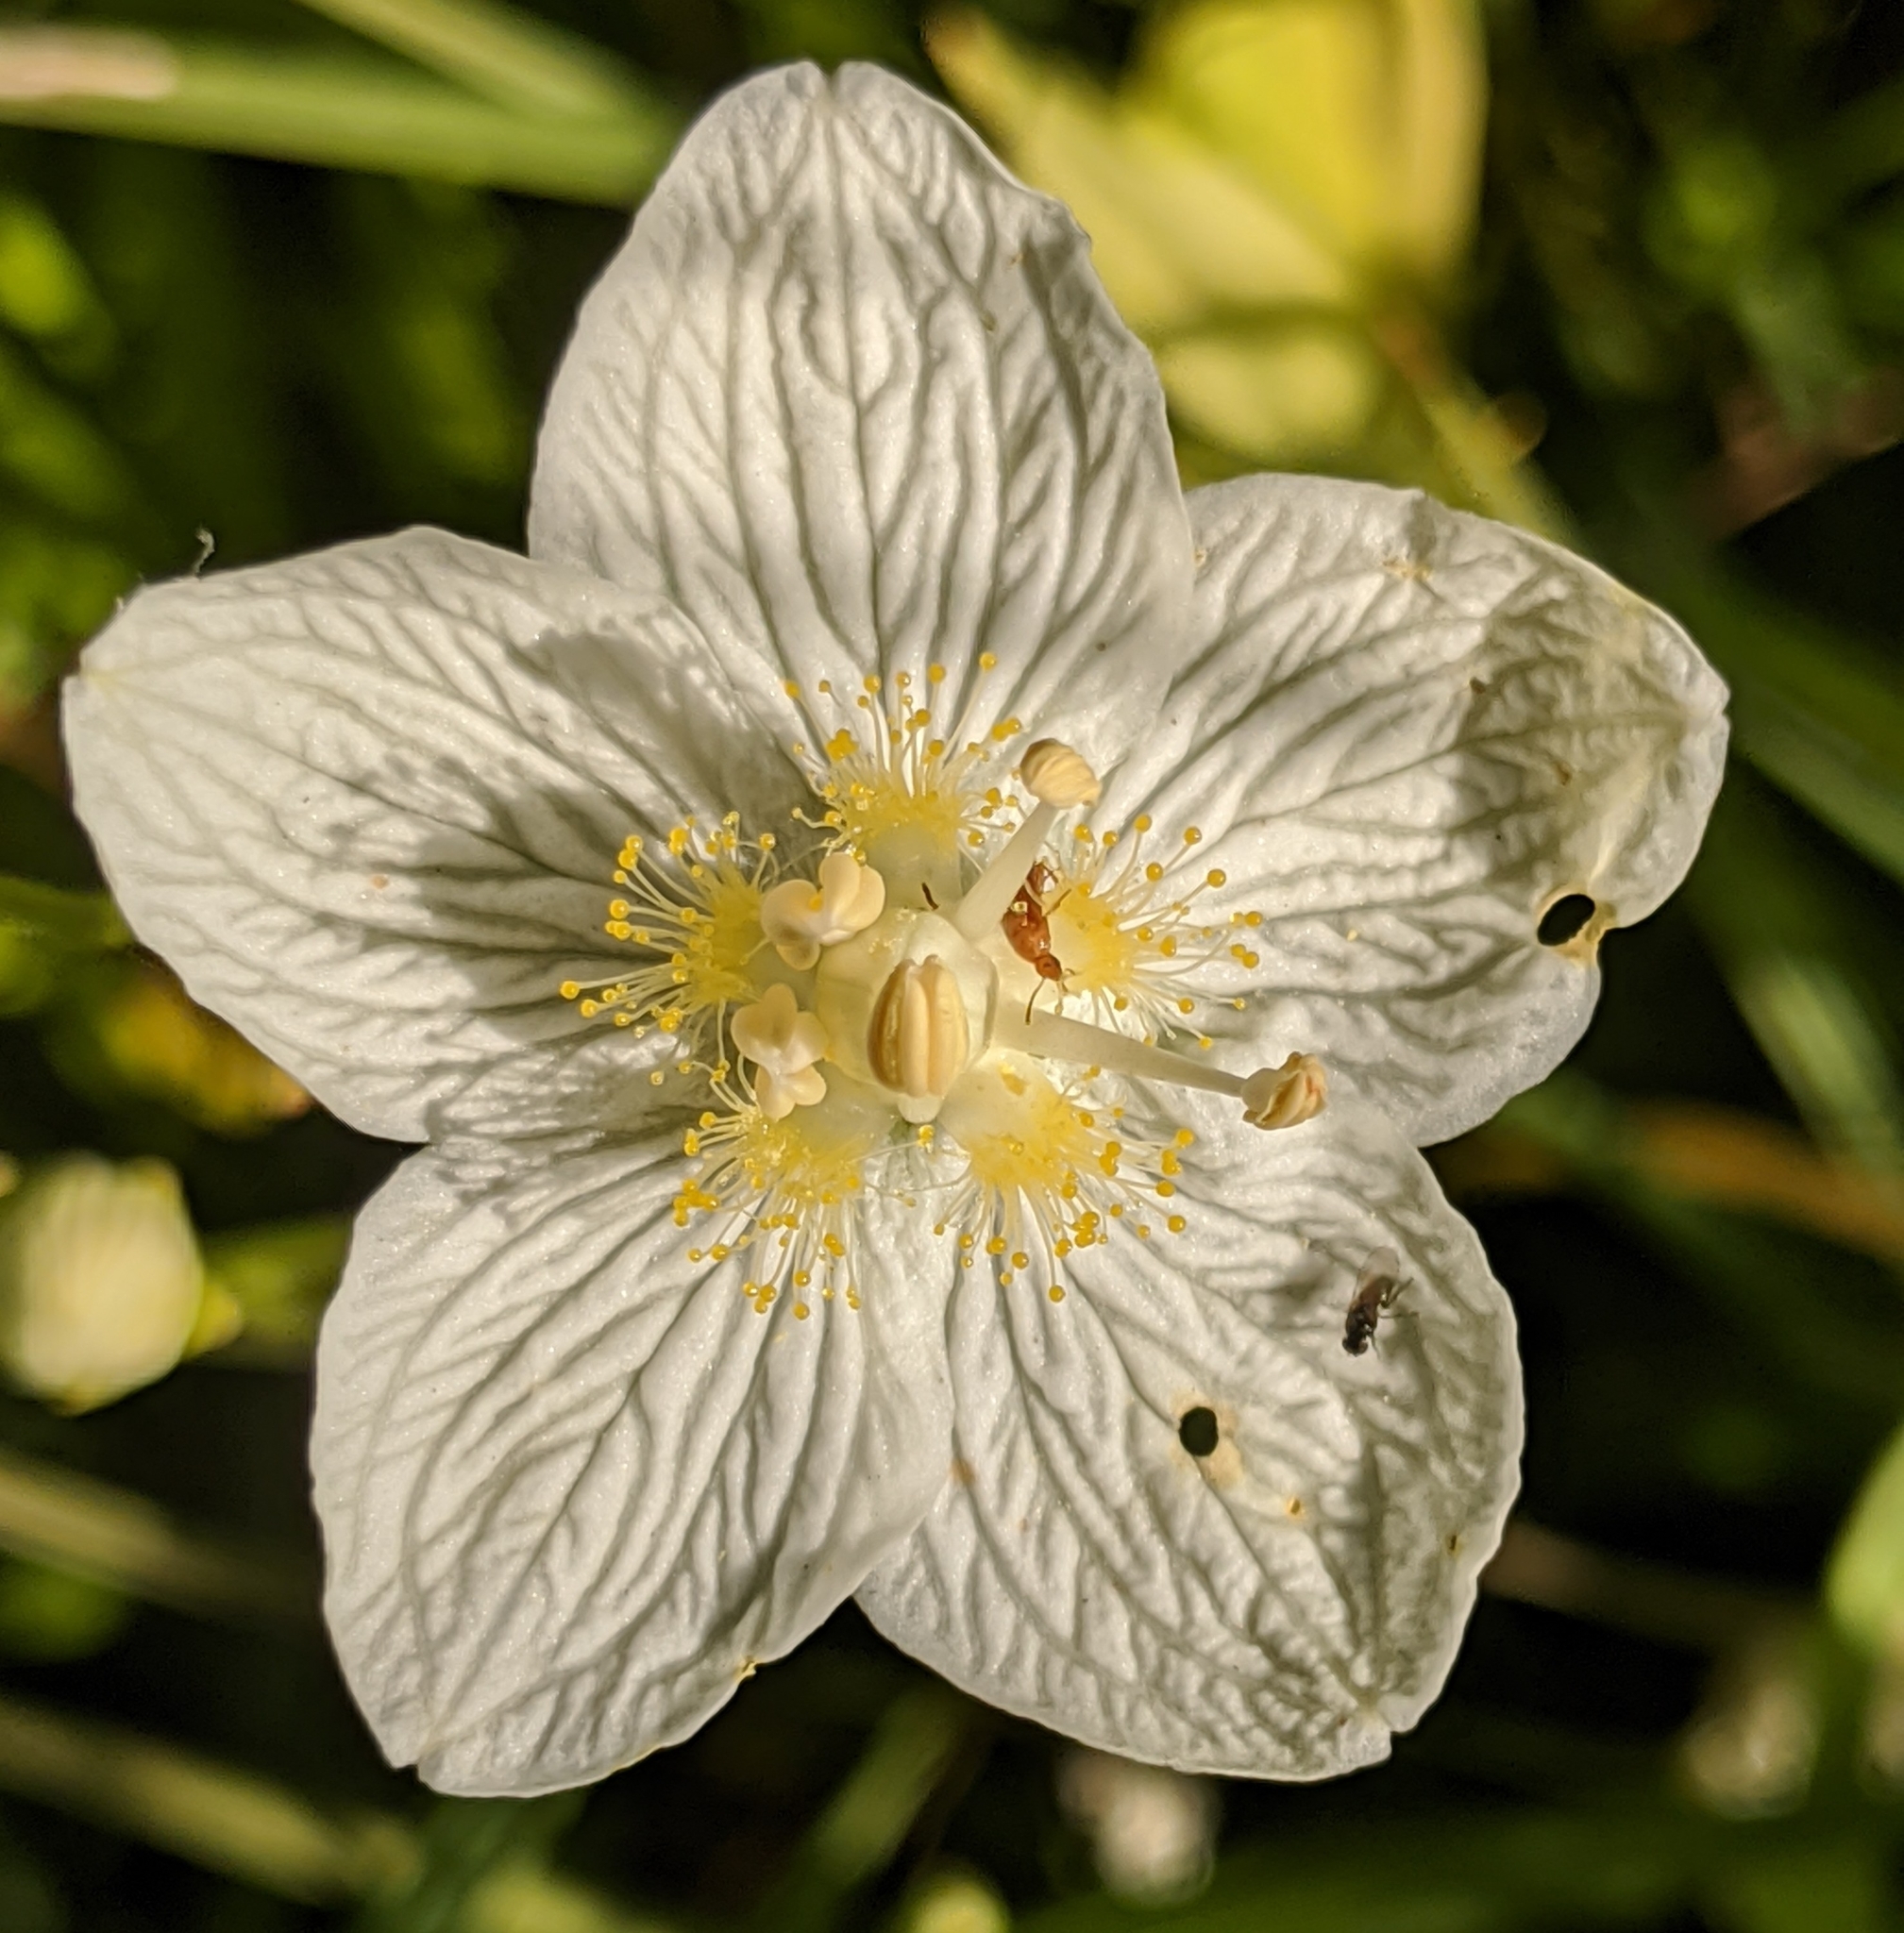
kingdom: Plantae
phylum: Tracheophyta
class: Magnoliopsida
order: Celastrales
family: Parnassiaceae
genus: Parnassia
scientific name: Parnassia palustris
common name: Grass-of-parnassus
